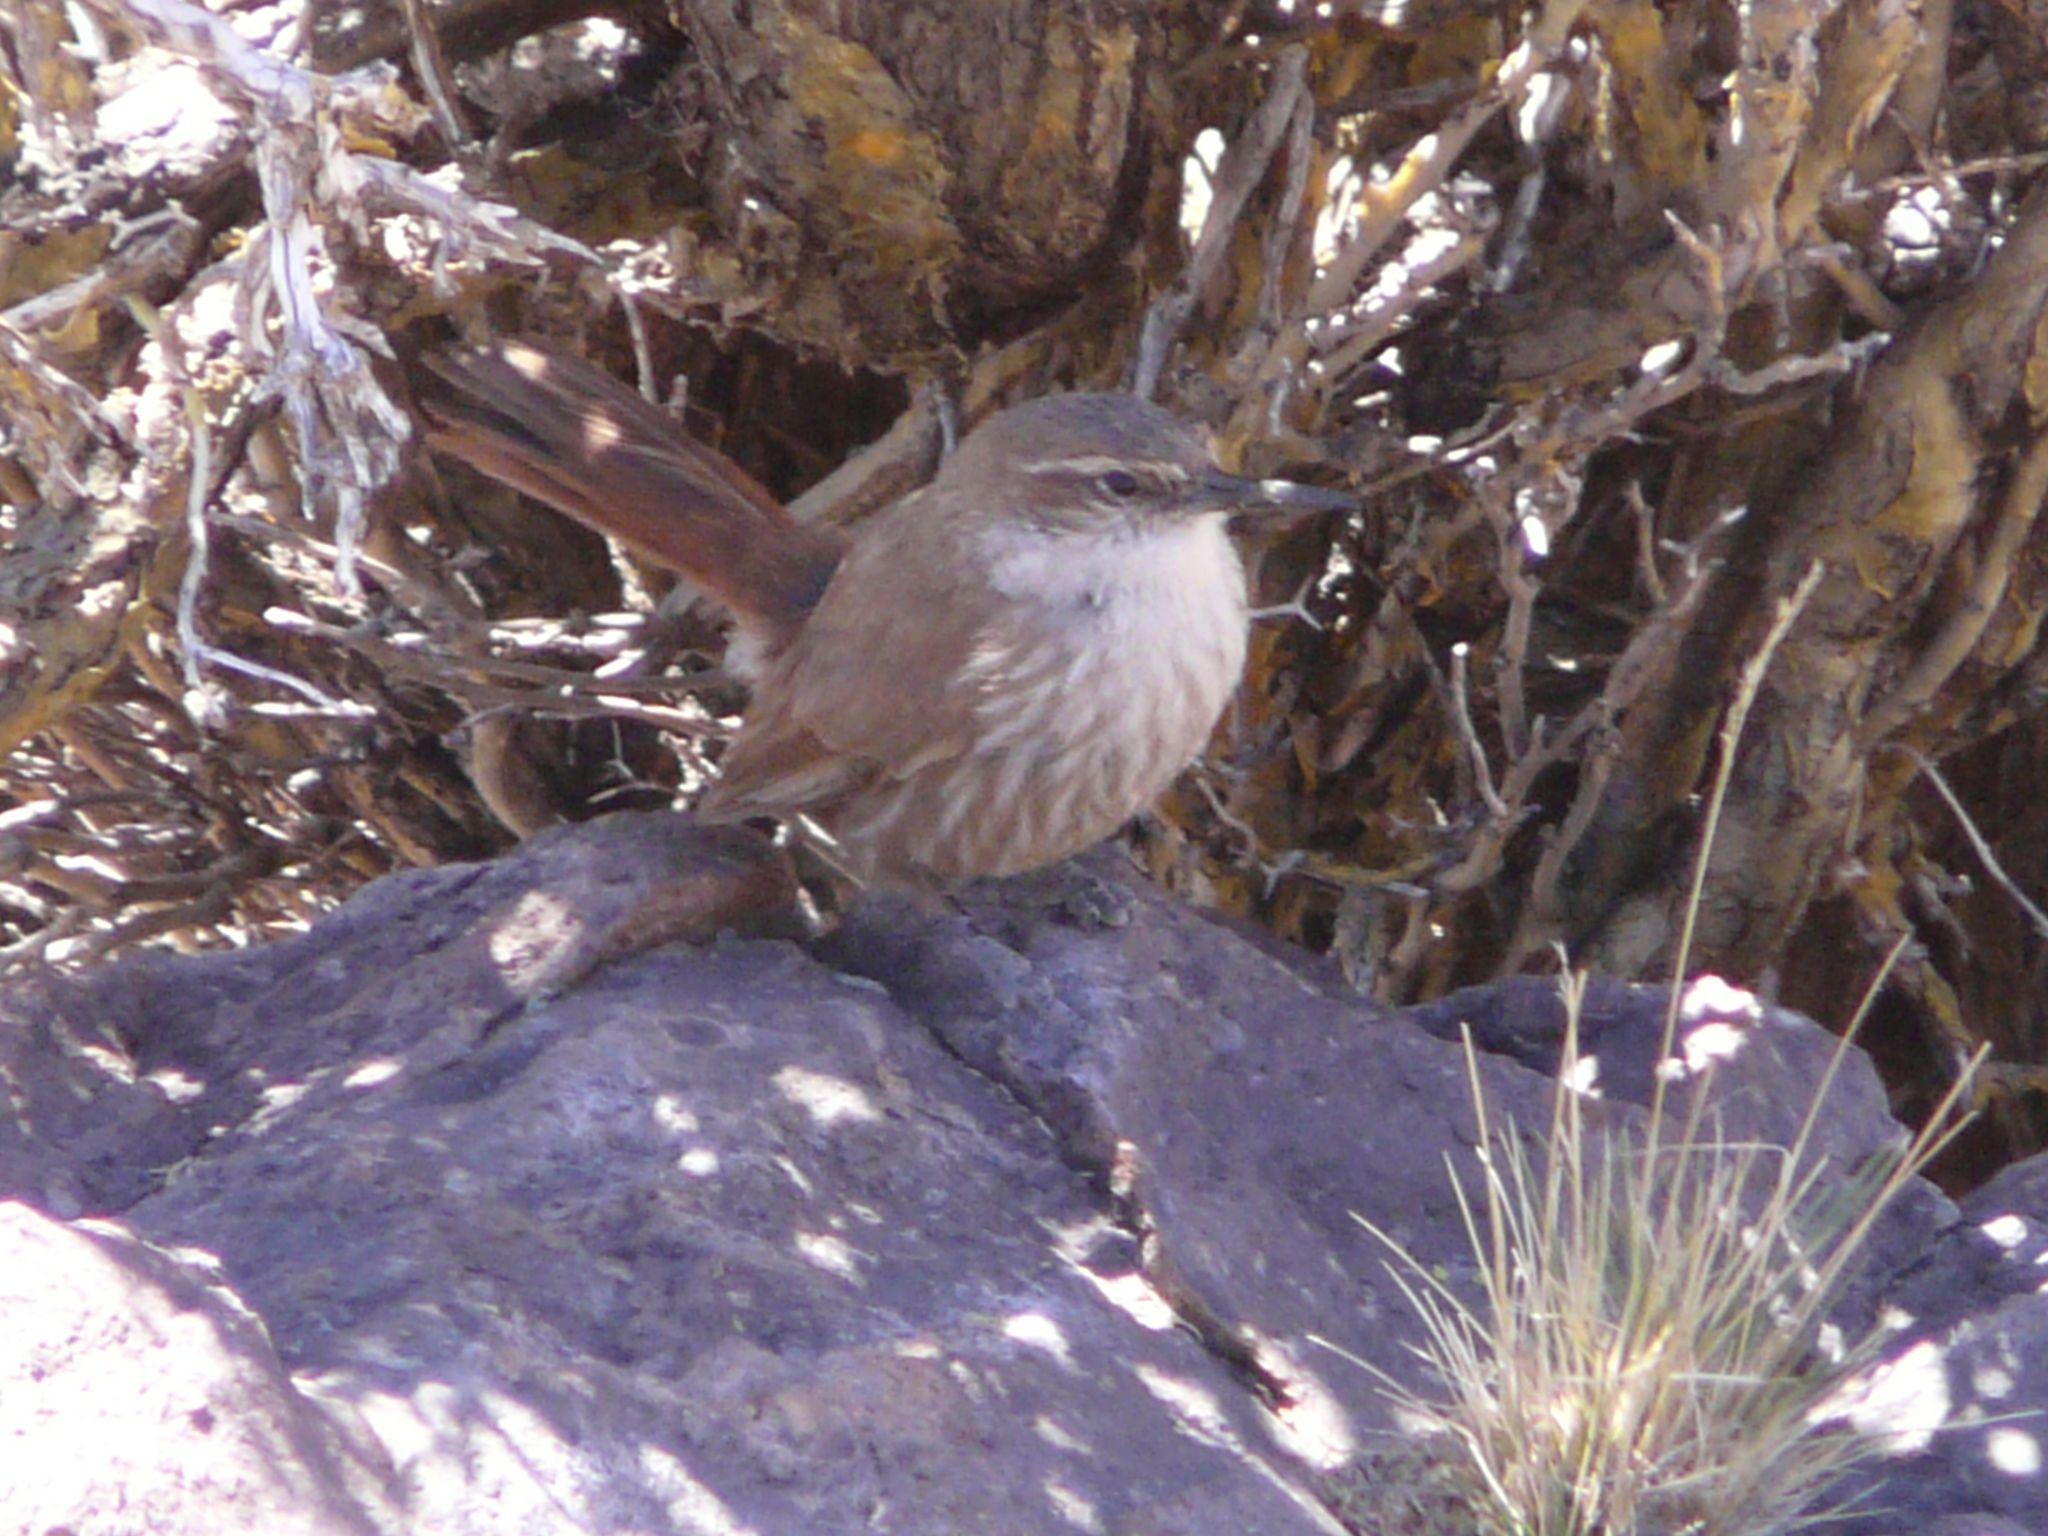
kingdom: Animalia
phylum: Chordata
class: Aves
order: Passeriformes
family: Furnariidae
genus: Upucerthia
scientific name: Upucerthia ruficaudus
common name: Straight-billed earthcreeper
